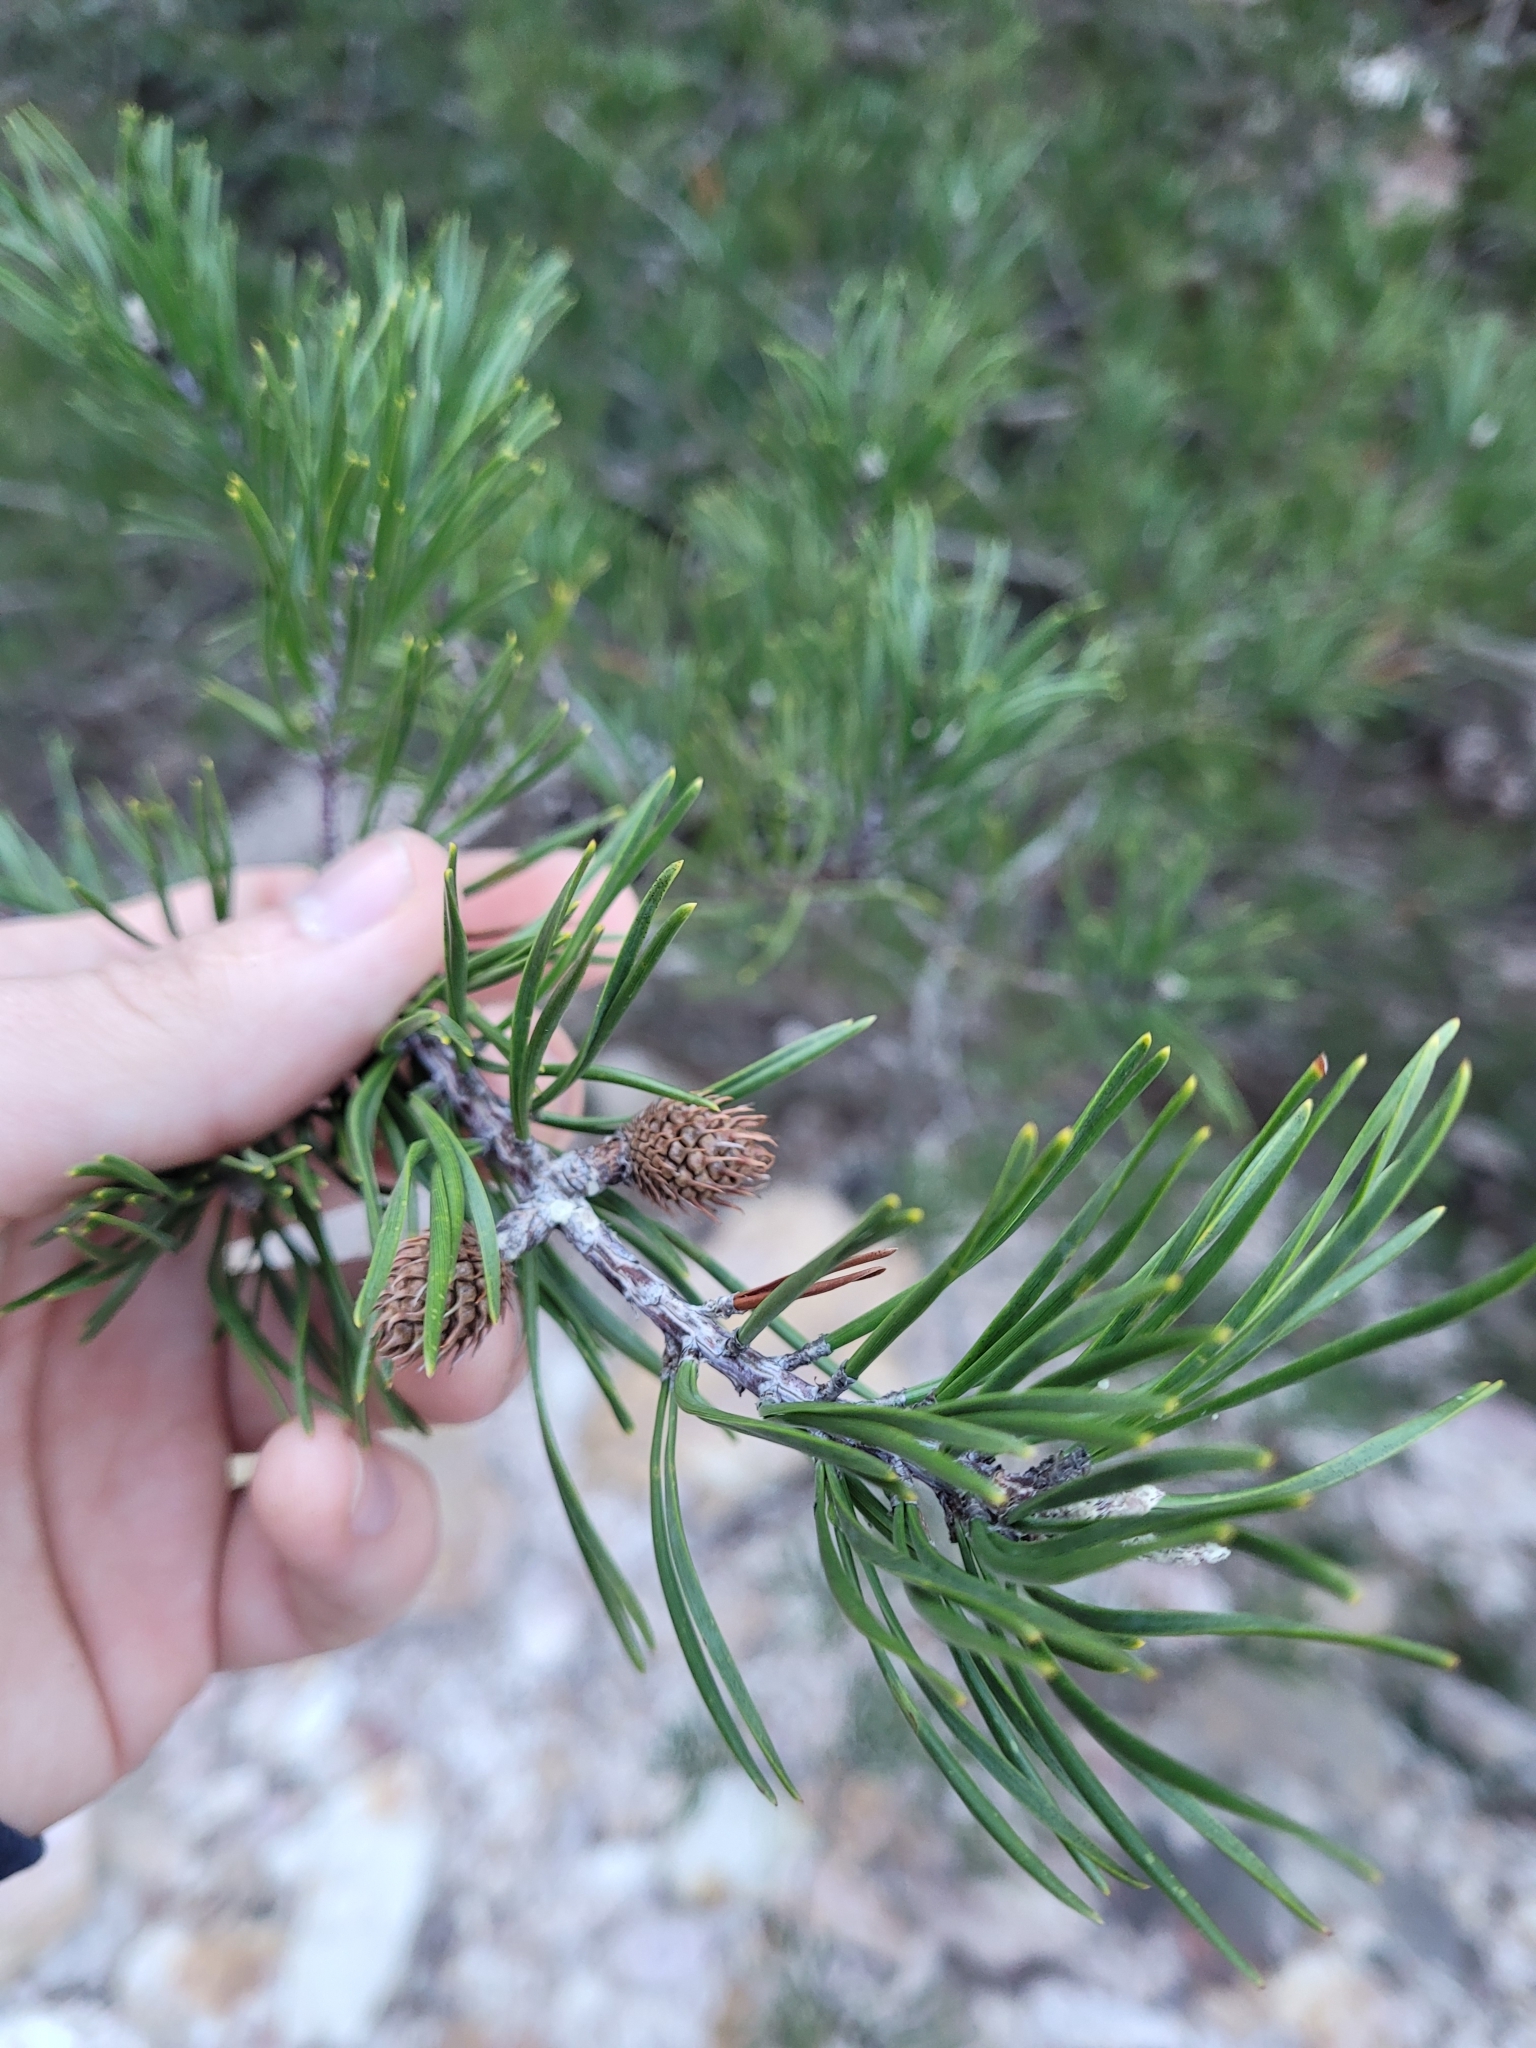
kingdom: Plantae
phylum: Tracheophyta
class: Pinopsida
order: Pinales
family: Pinaceae
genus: Pinus
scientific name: Pinus virginiana
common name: Scrub pine
